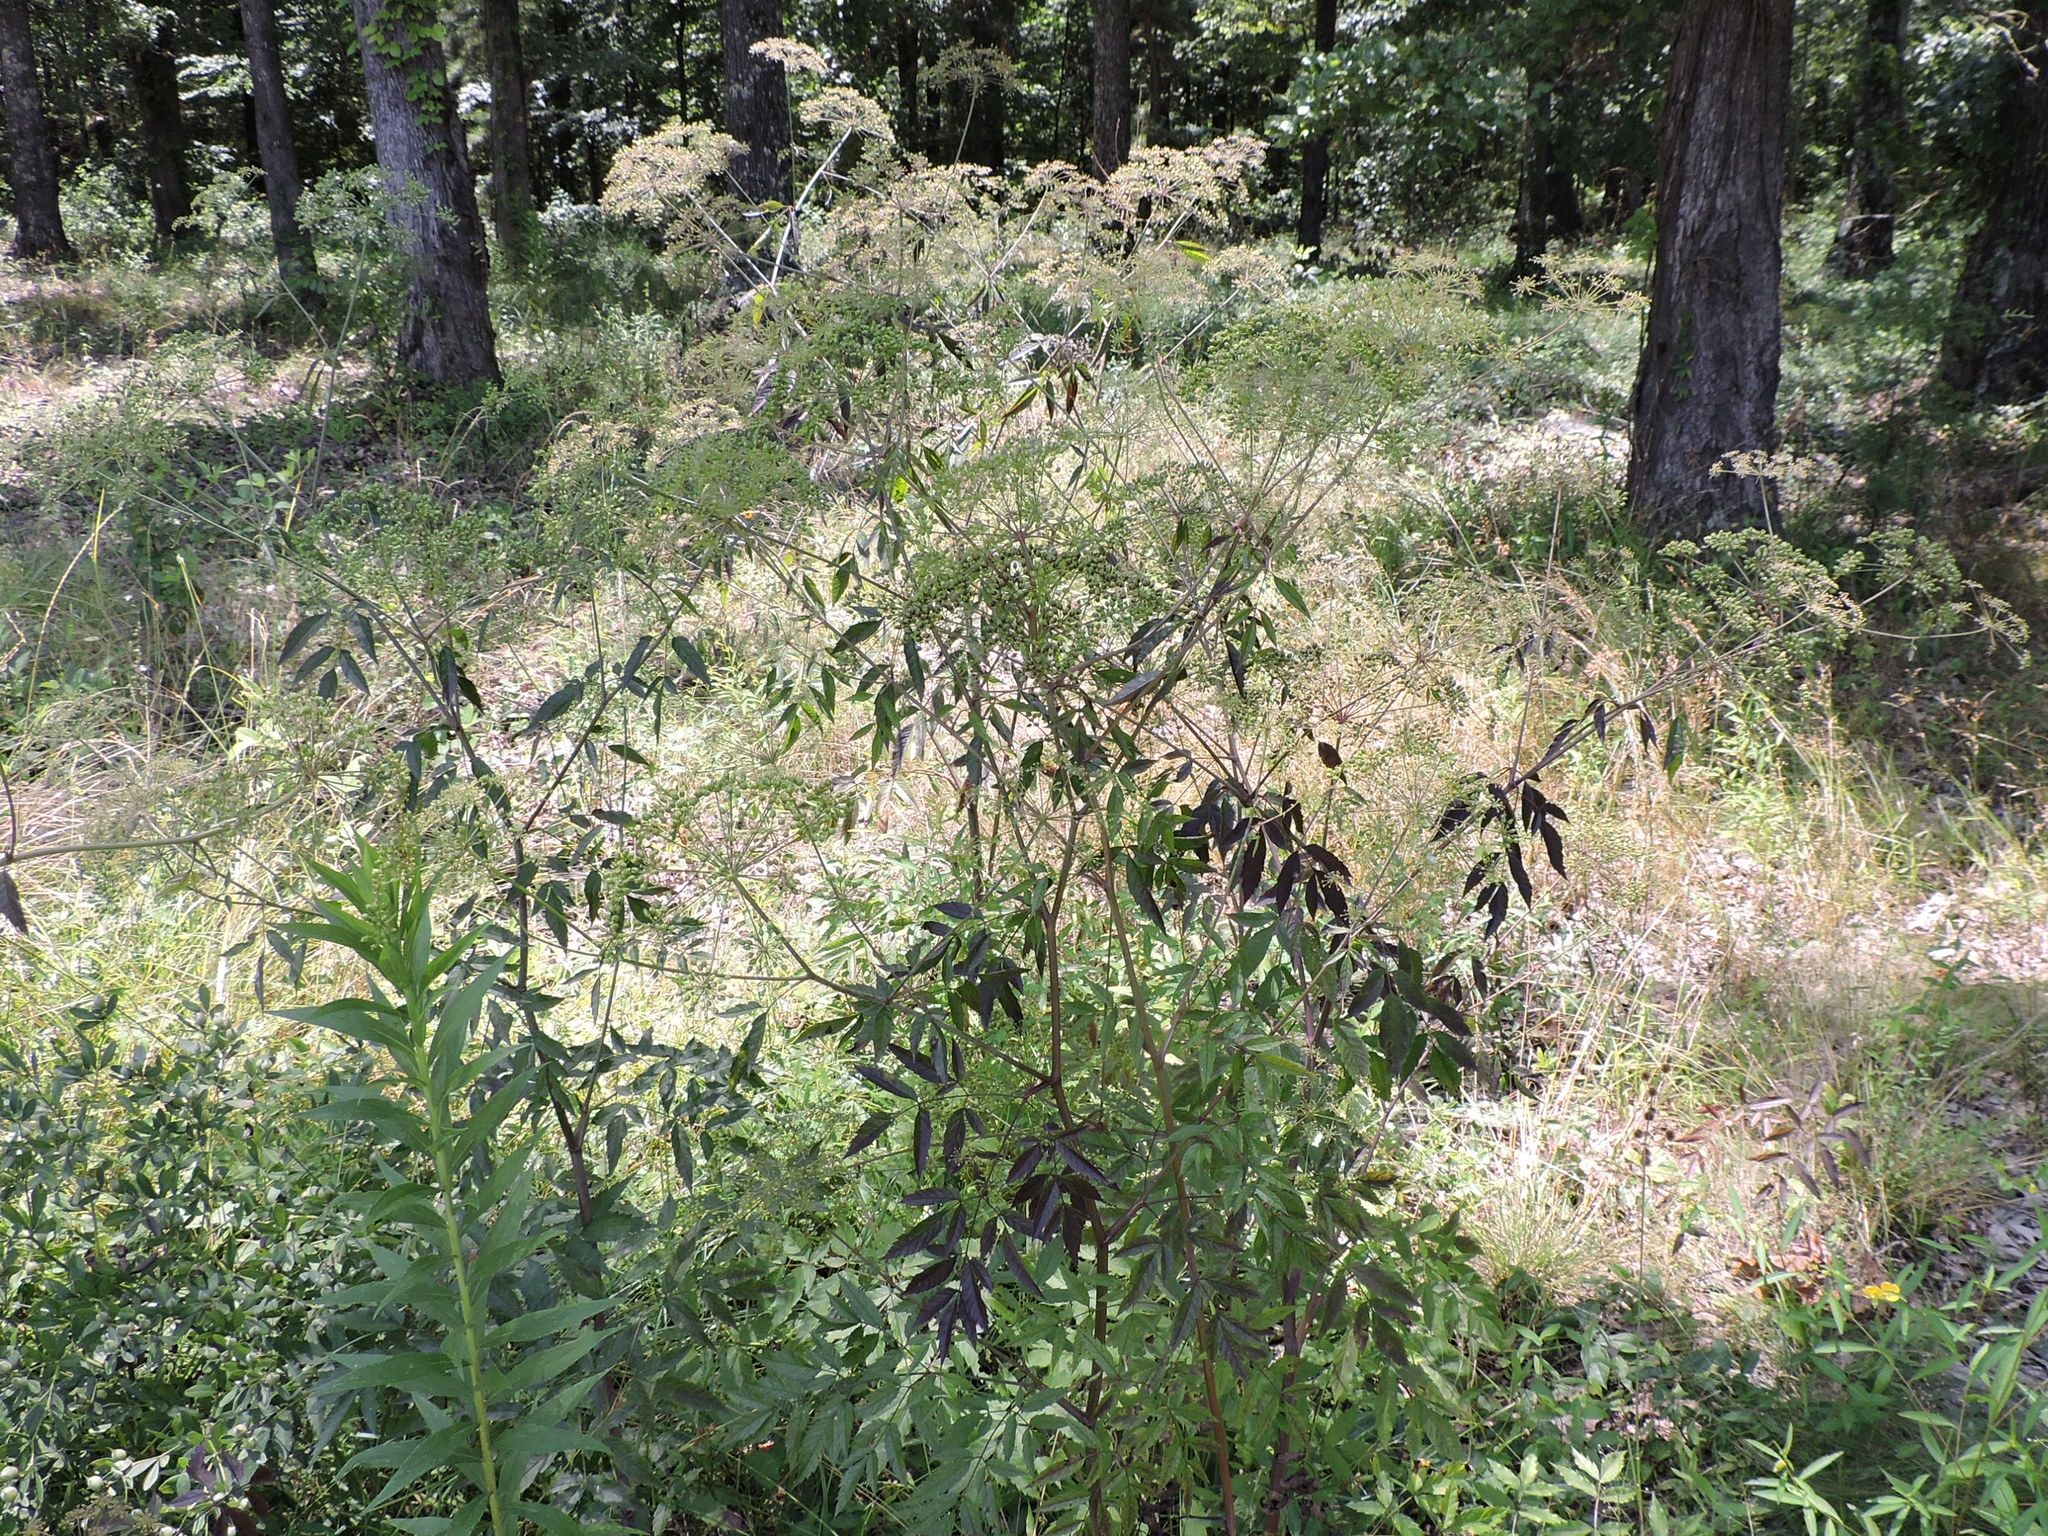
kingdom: Plantae
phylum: Tracheophyta
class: Magnoliopsida
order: Apiales
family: Apiaceae
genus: Cicuta
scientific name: Cicuta maculata
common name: Spotted cowbane
